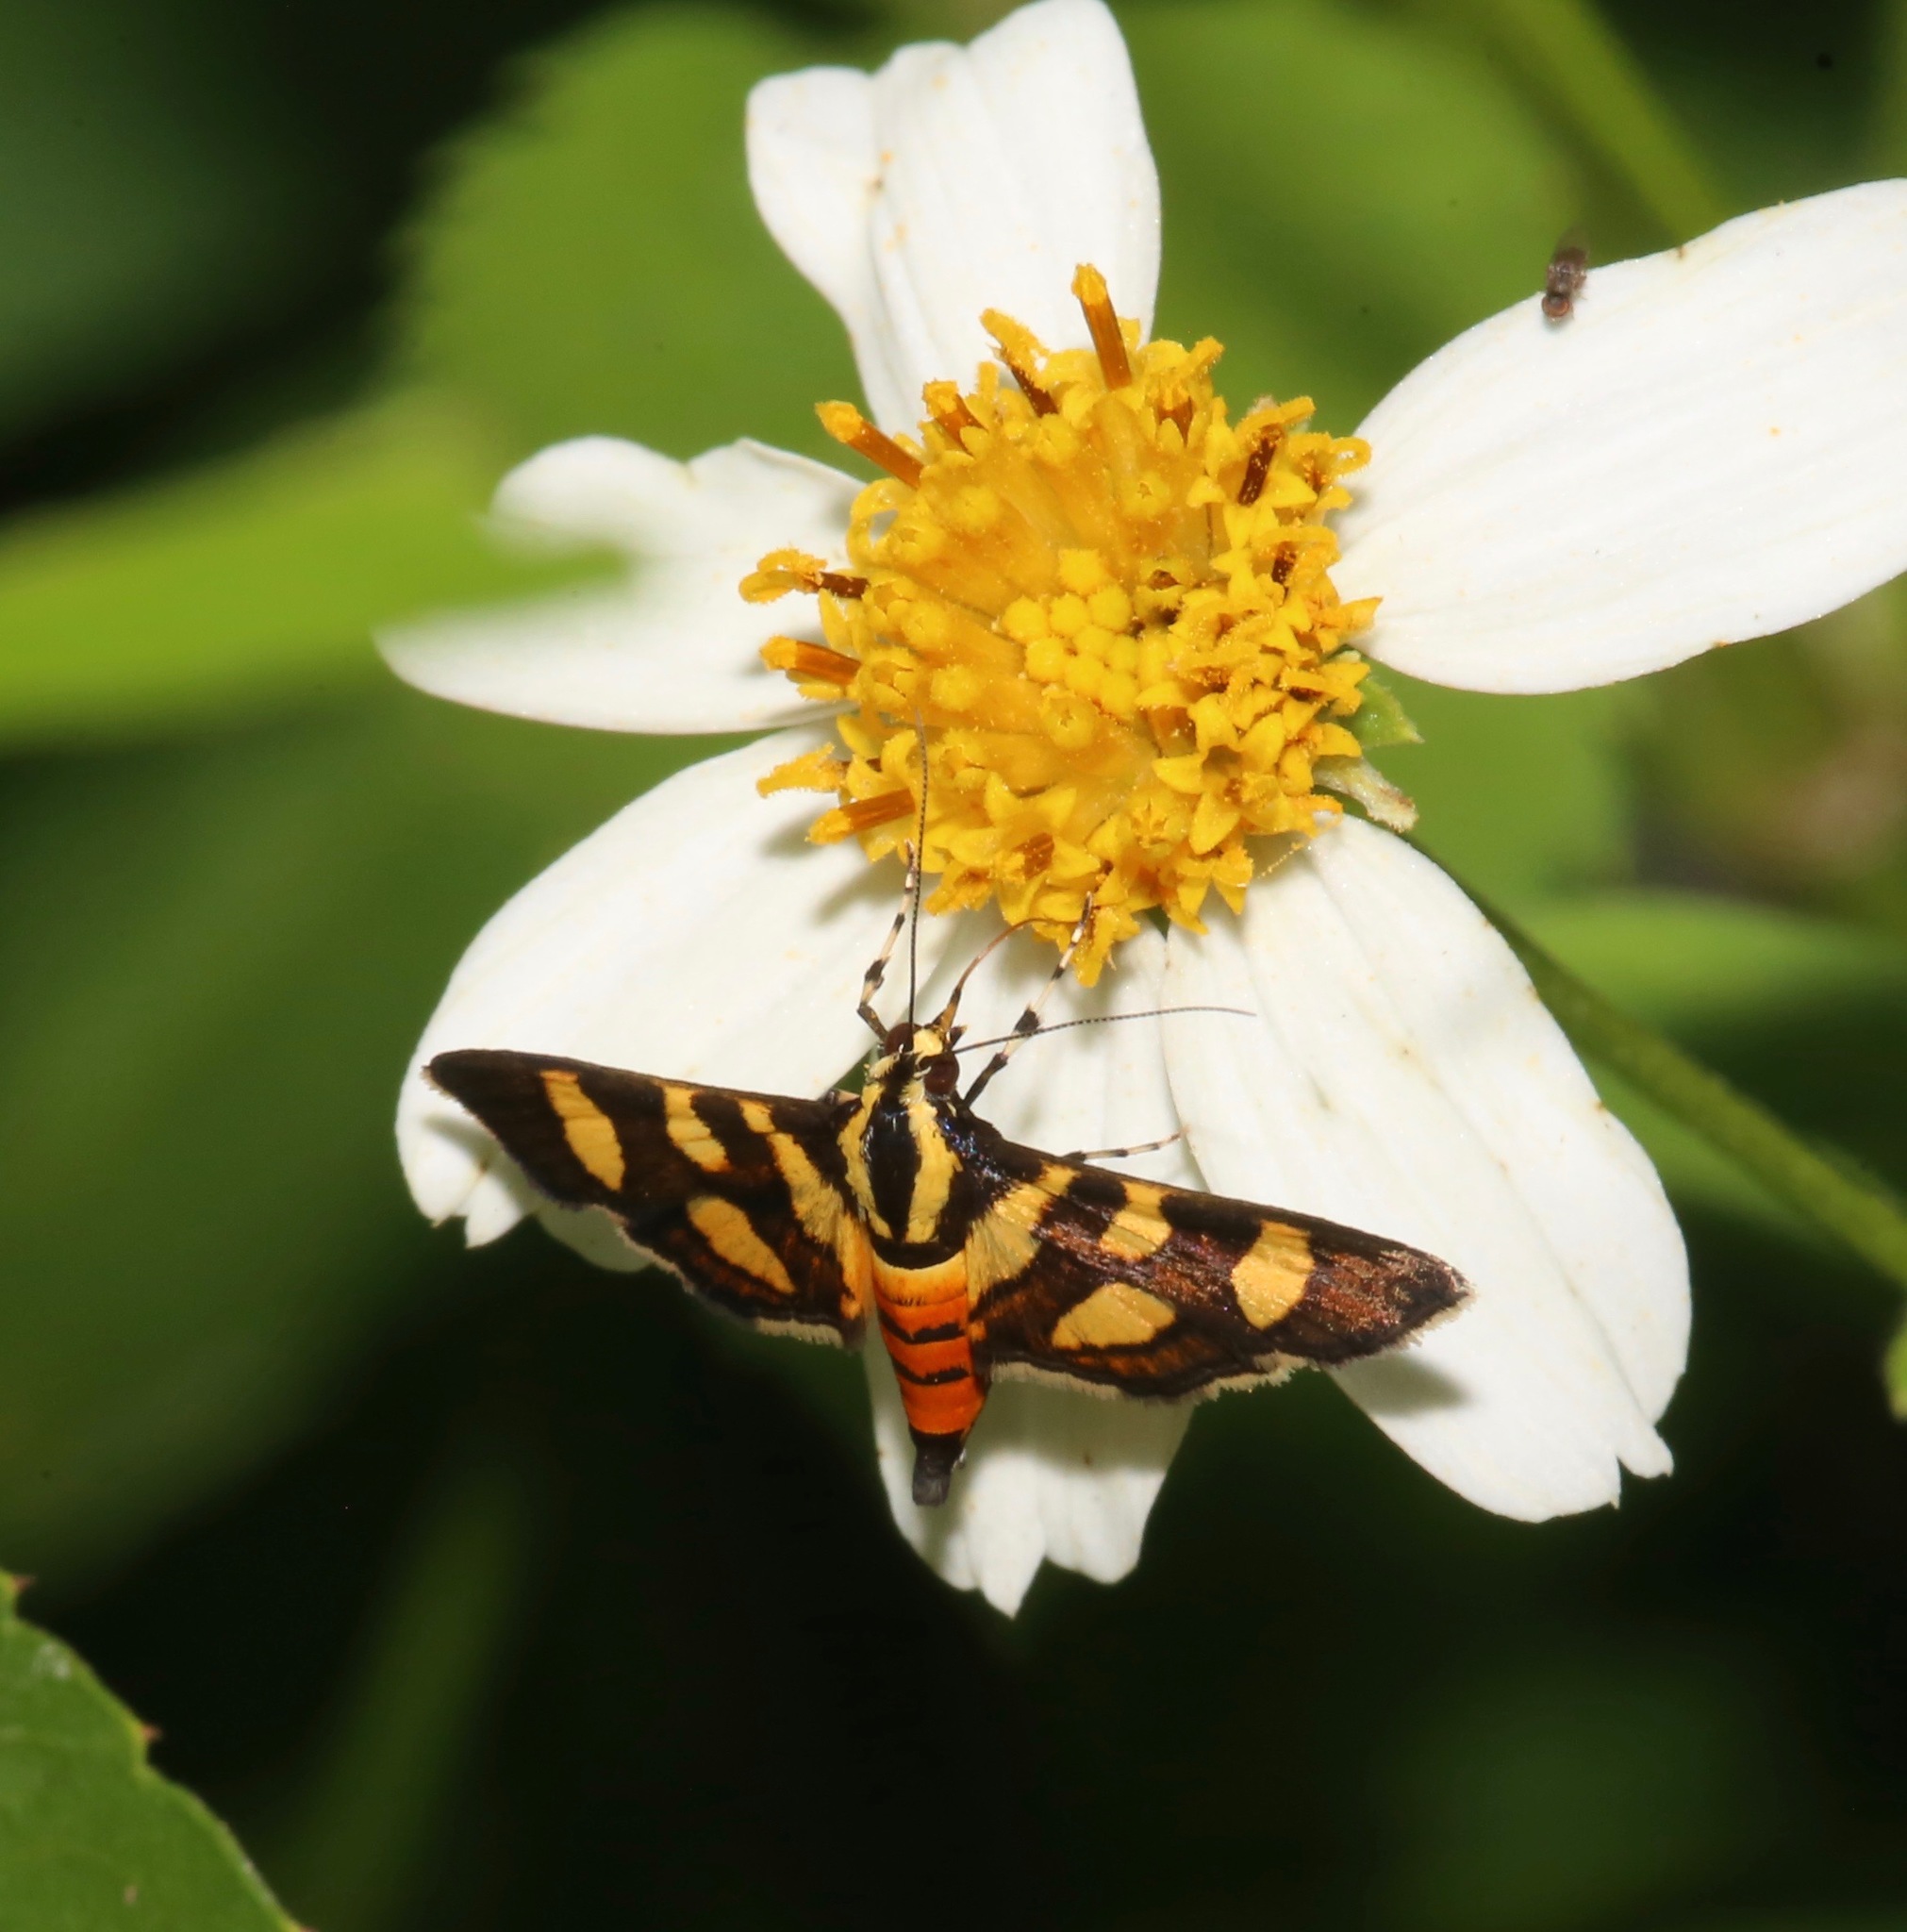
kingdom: Animalia
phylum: Arthropoda
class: Insecta
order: Lepidoptera
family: Crambidae
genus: Syngamia
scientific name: Syngamia florella
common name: Orange-spotted flower moth
